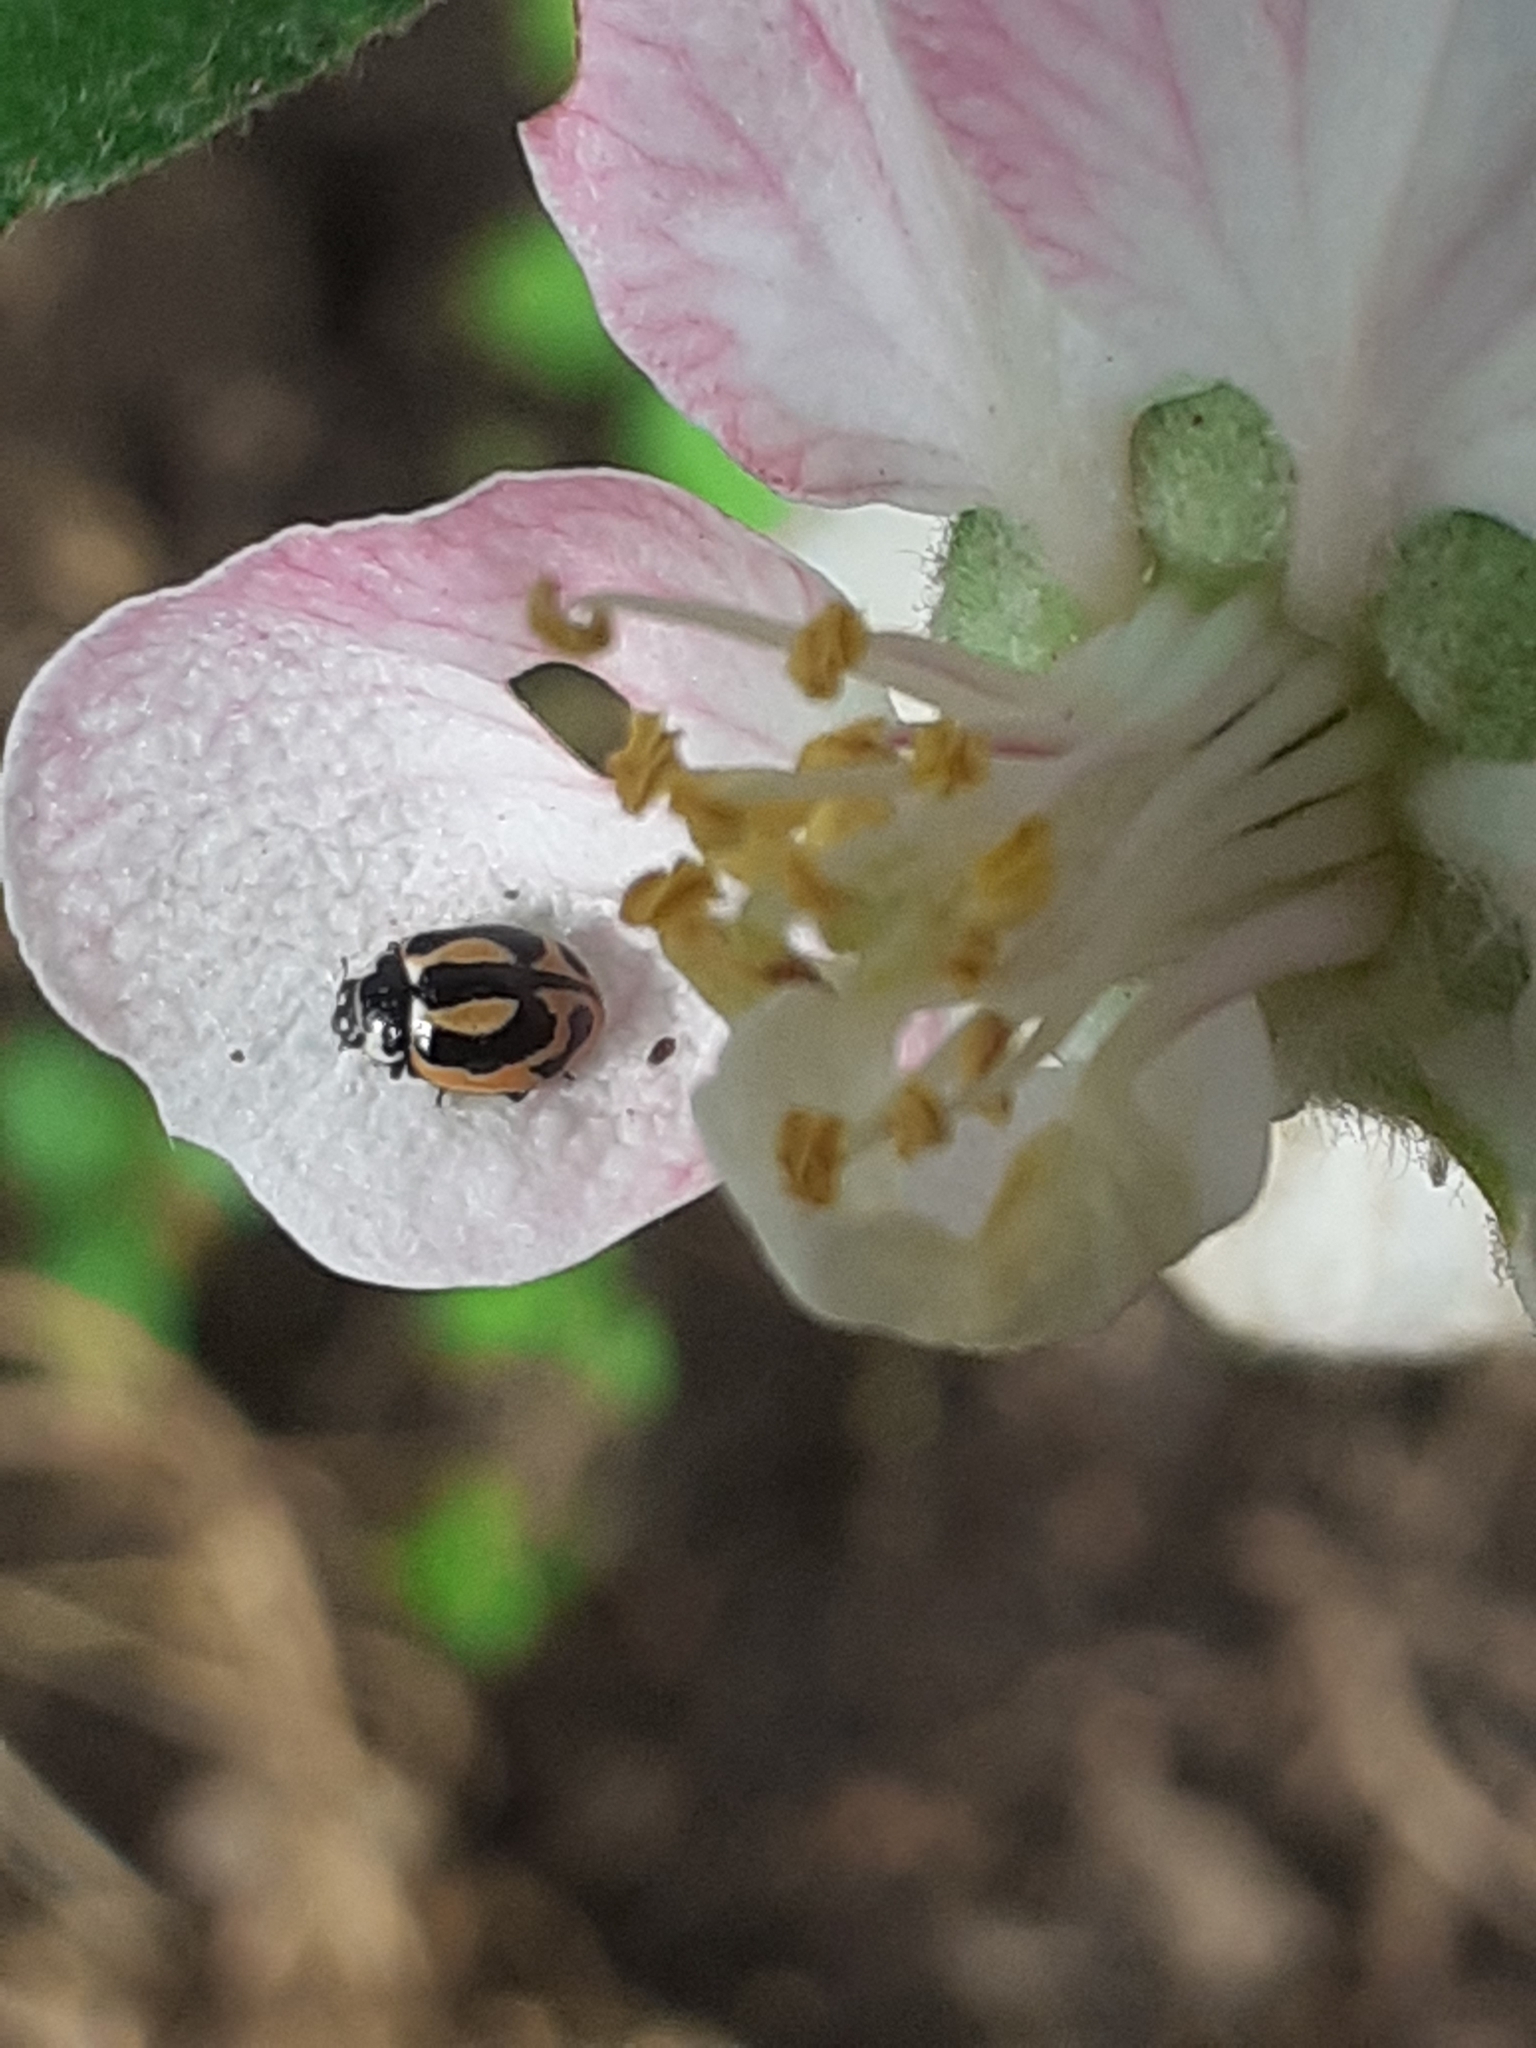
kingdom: Animalia
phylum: Arthropoda
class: Insecta
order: Coleoptera
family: Coccinellidae
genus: Coccinella
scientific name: Coccinella miranda
